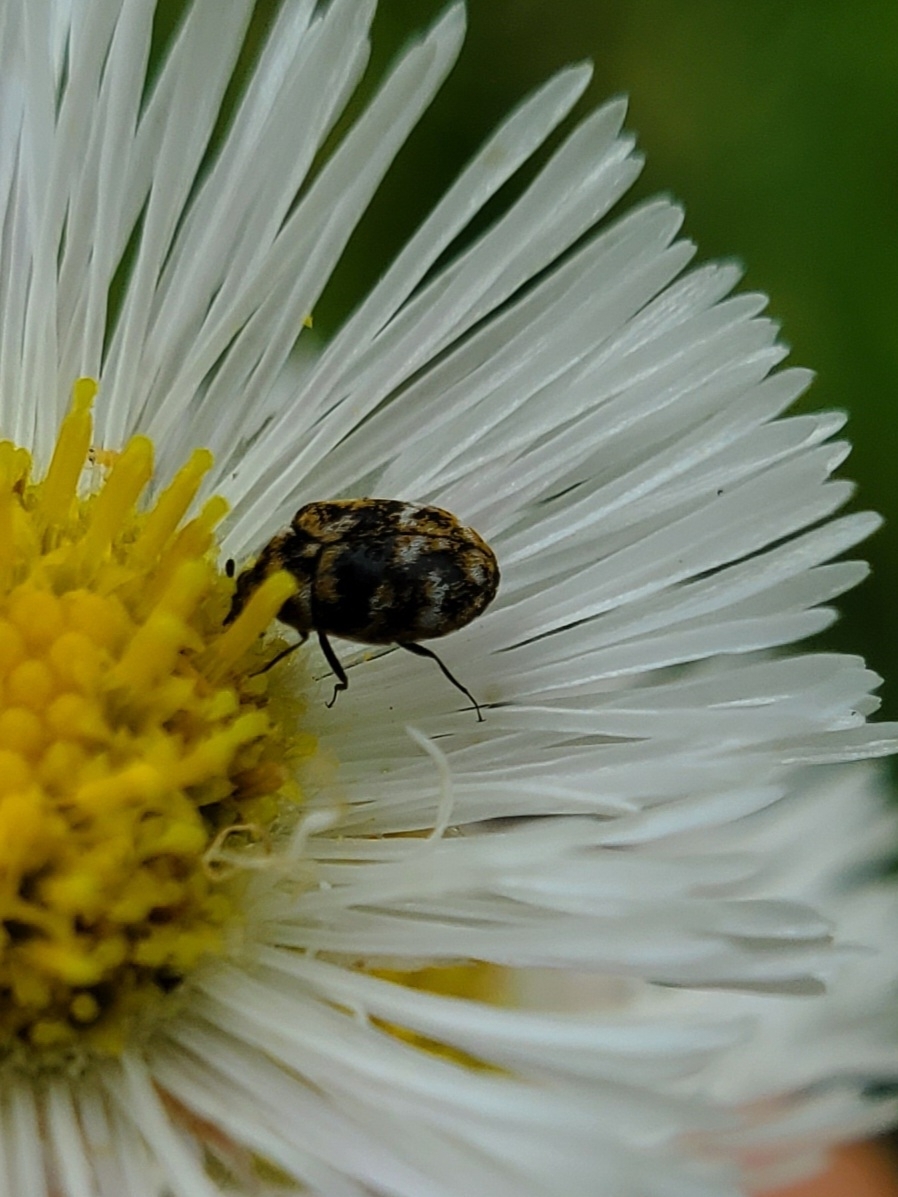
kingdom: Animalia
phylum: Arthropoda
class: Insecta
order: Coleoptera
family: Dermestidae
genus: Anthrenus
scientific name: Anthrenus verbasci
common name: Varied carpet beetle
